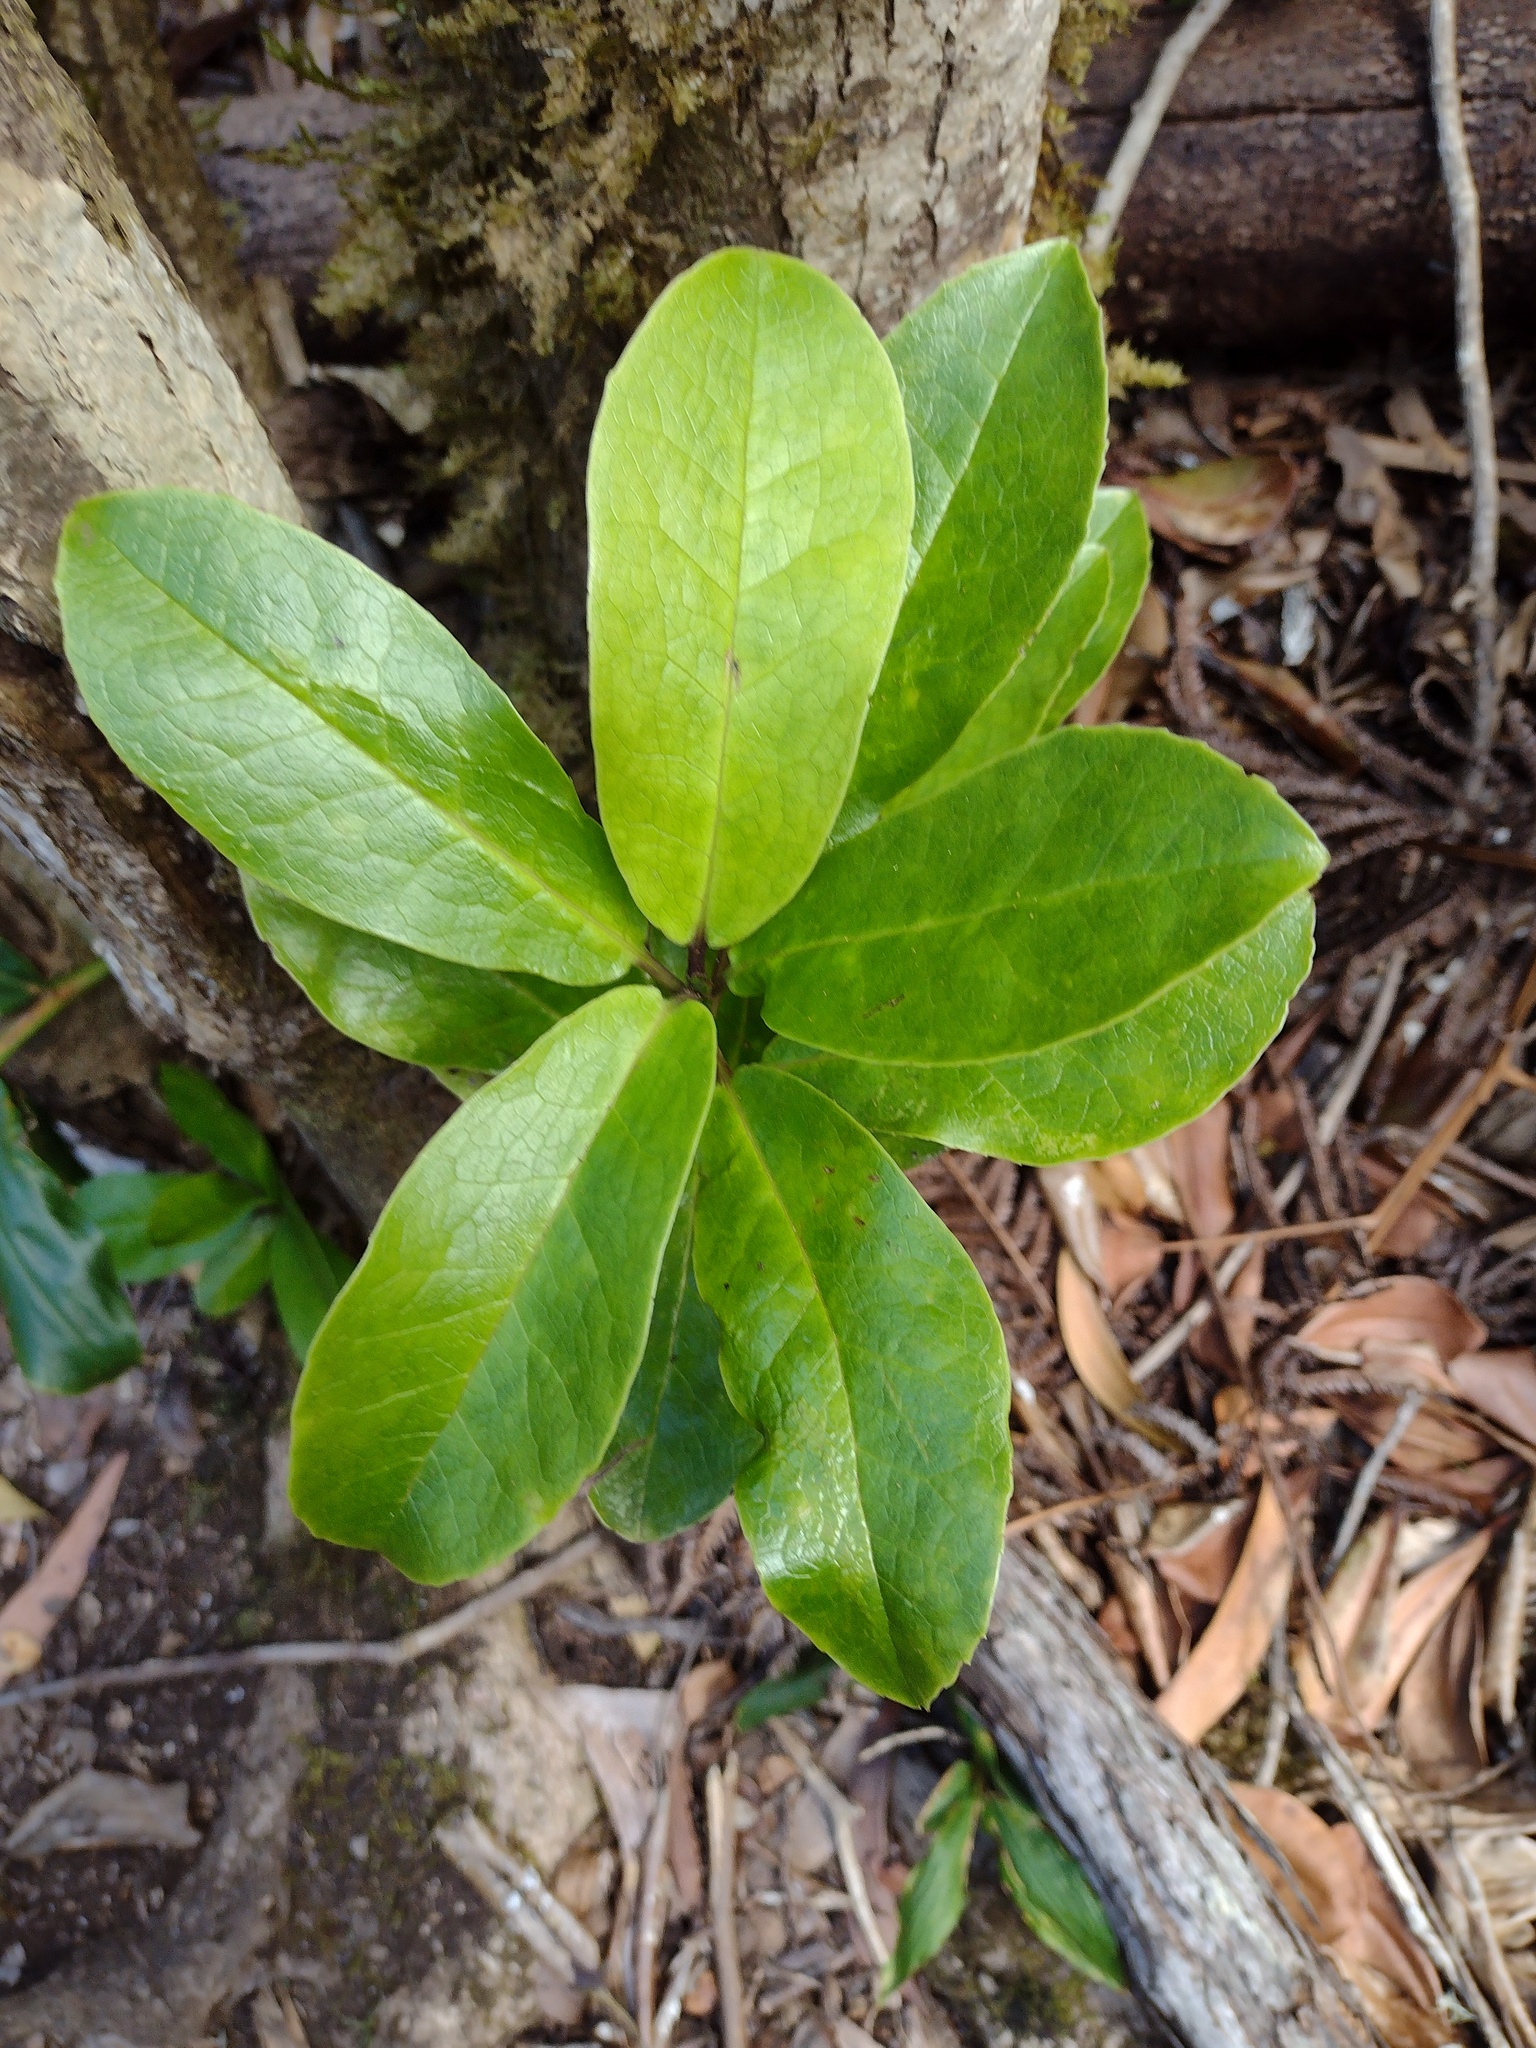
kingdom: Plantae
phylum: Tracheophyta
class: Magnoliopsida
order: Aquifoliales
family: Aquifoliaceae
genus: Ilex
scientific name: Ilex anomala
